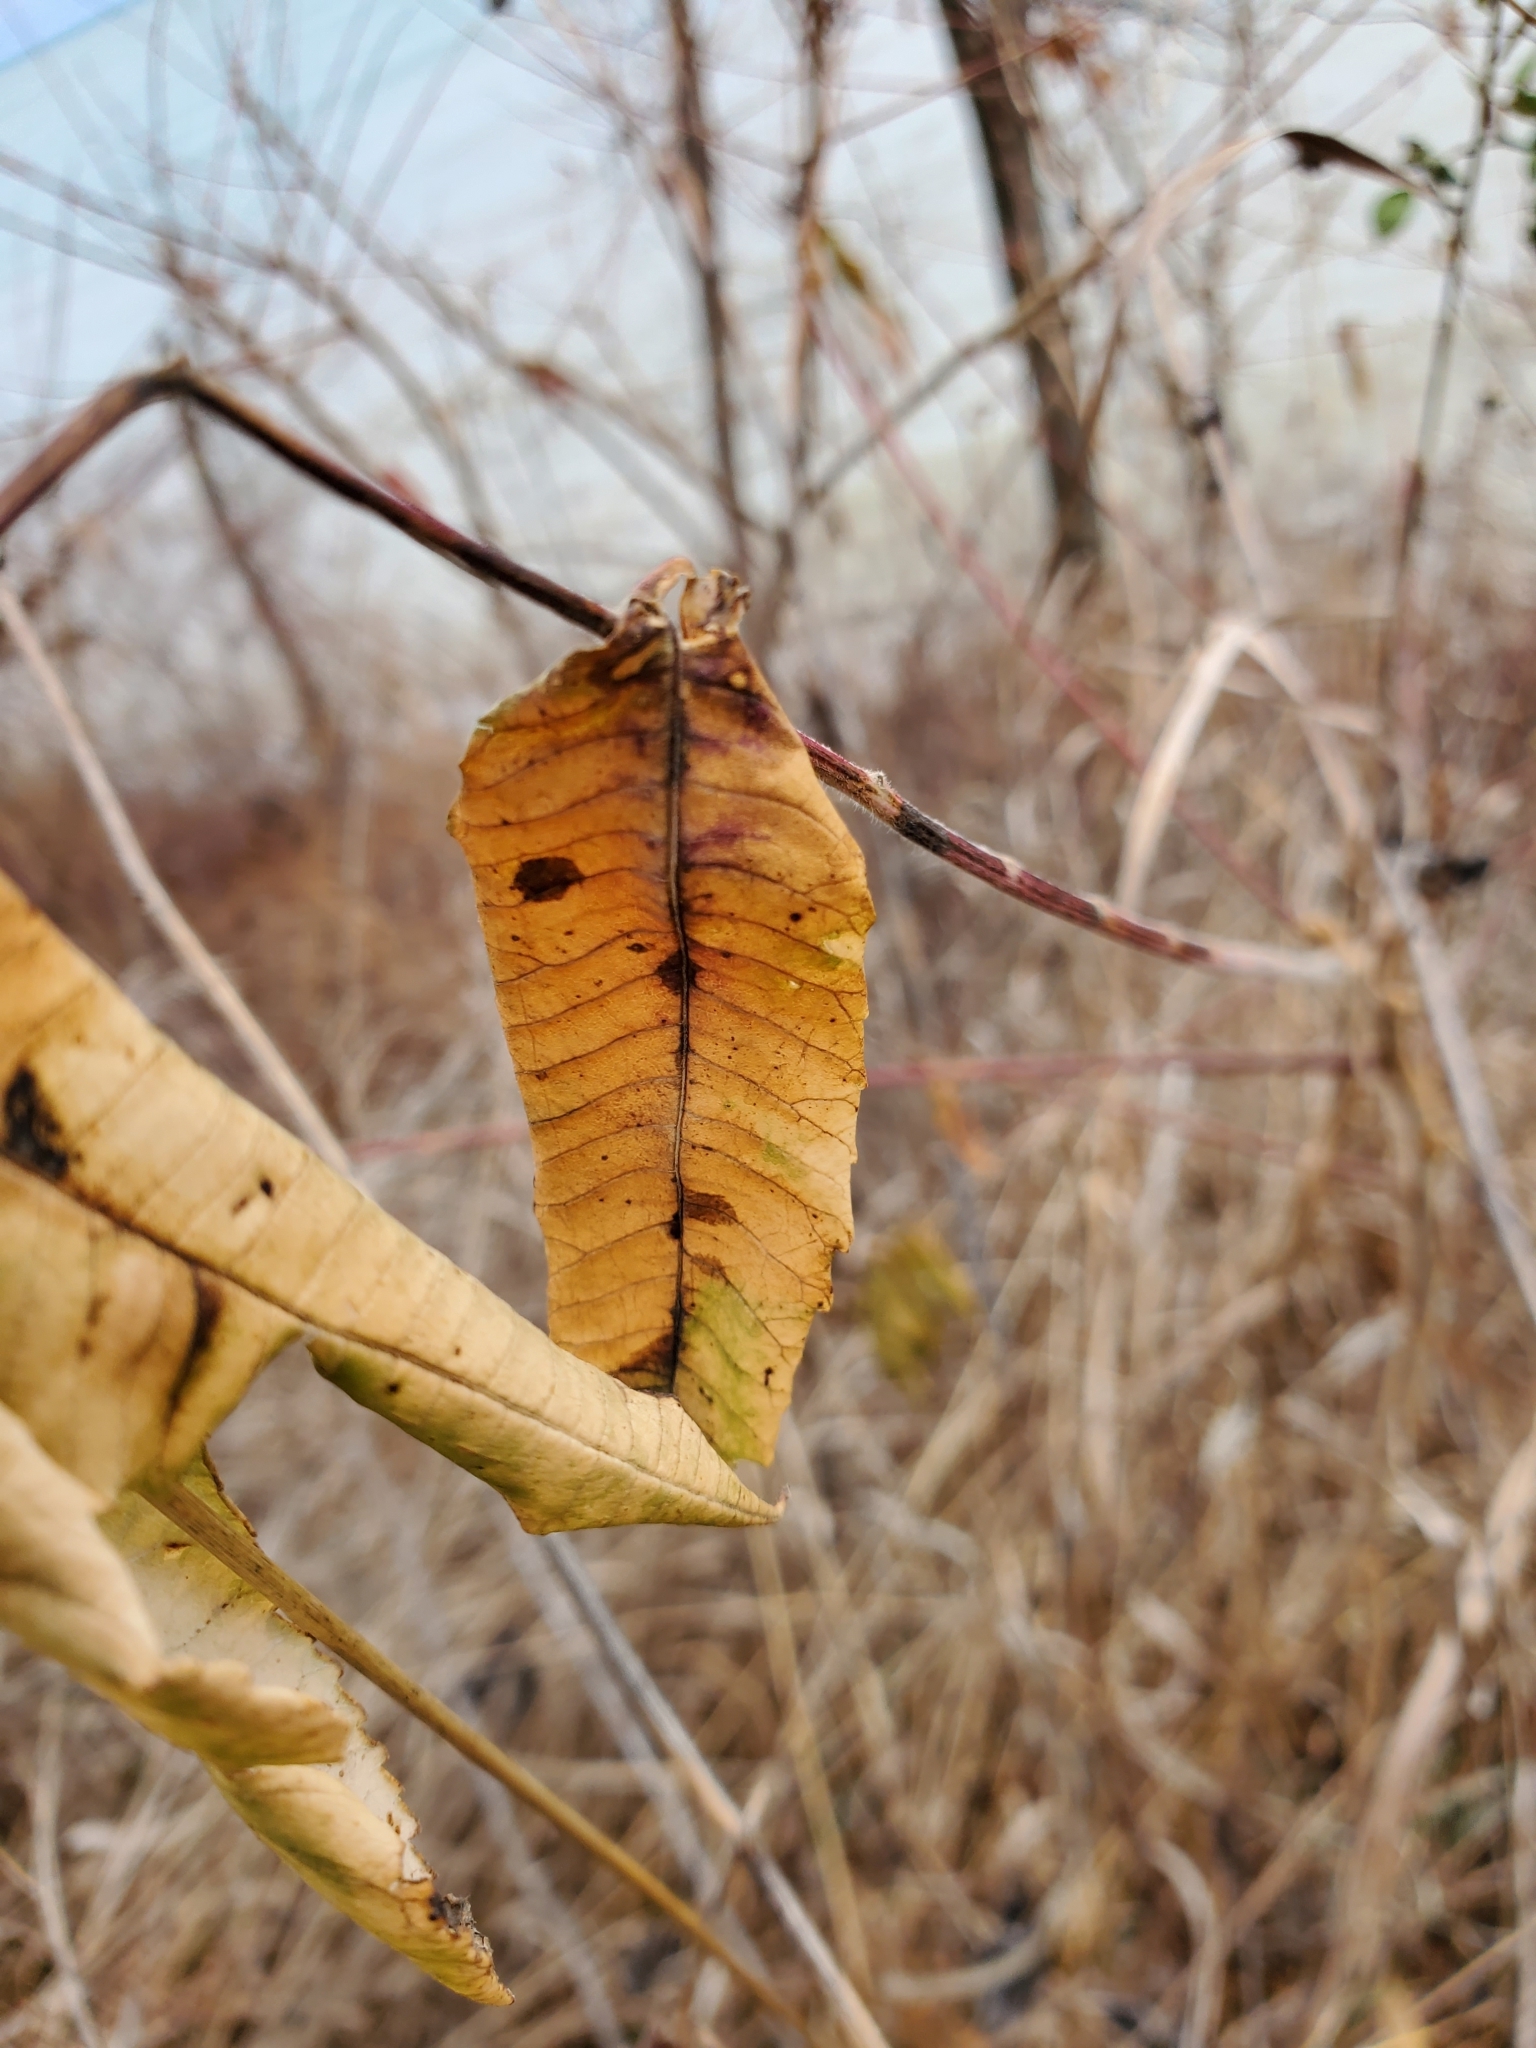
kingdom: Plantae
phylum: Tracheophyta
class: Magnoliopsida
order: Sapindales
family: Anacardiaceae
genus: Rhus
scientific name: Rhus typhina
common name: Staghorn sumac
